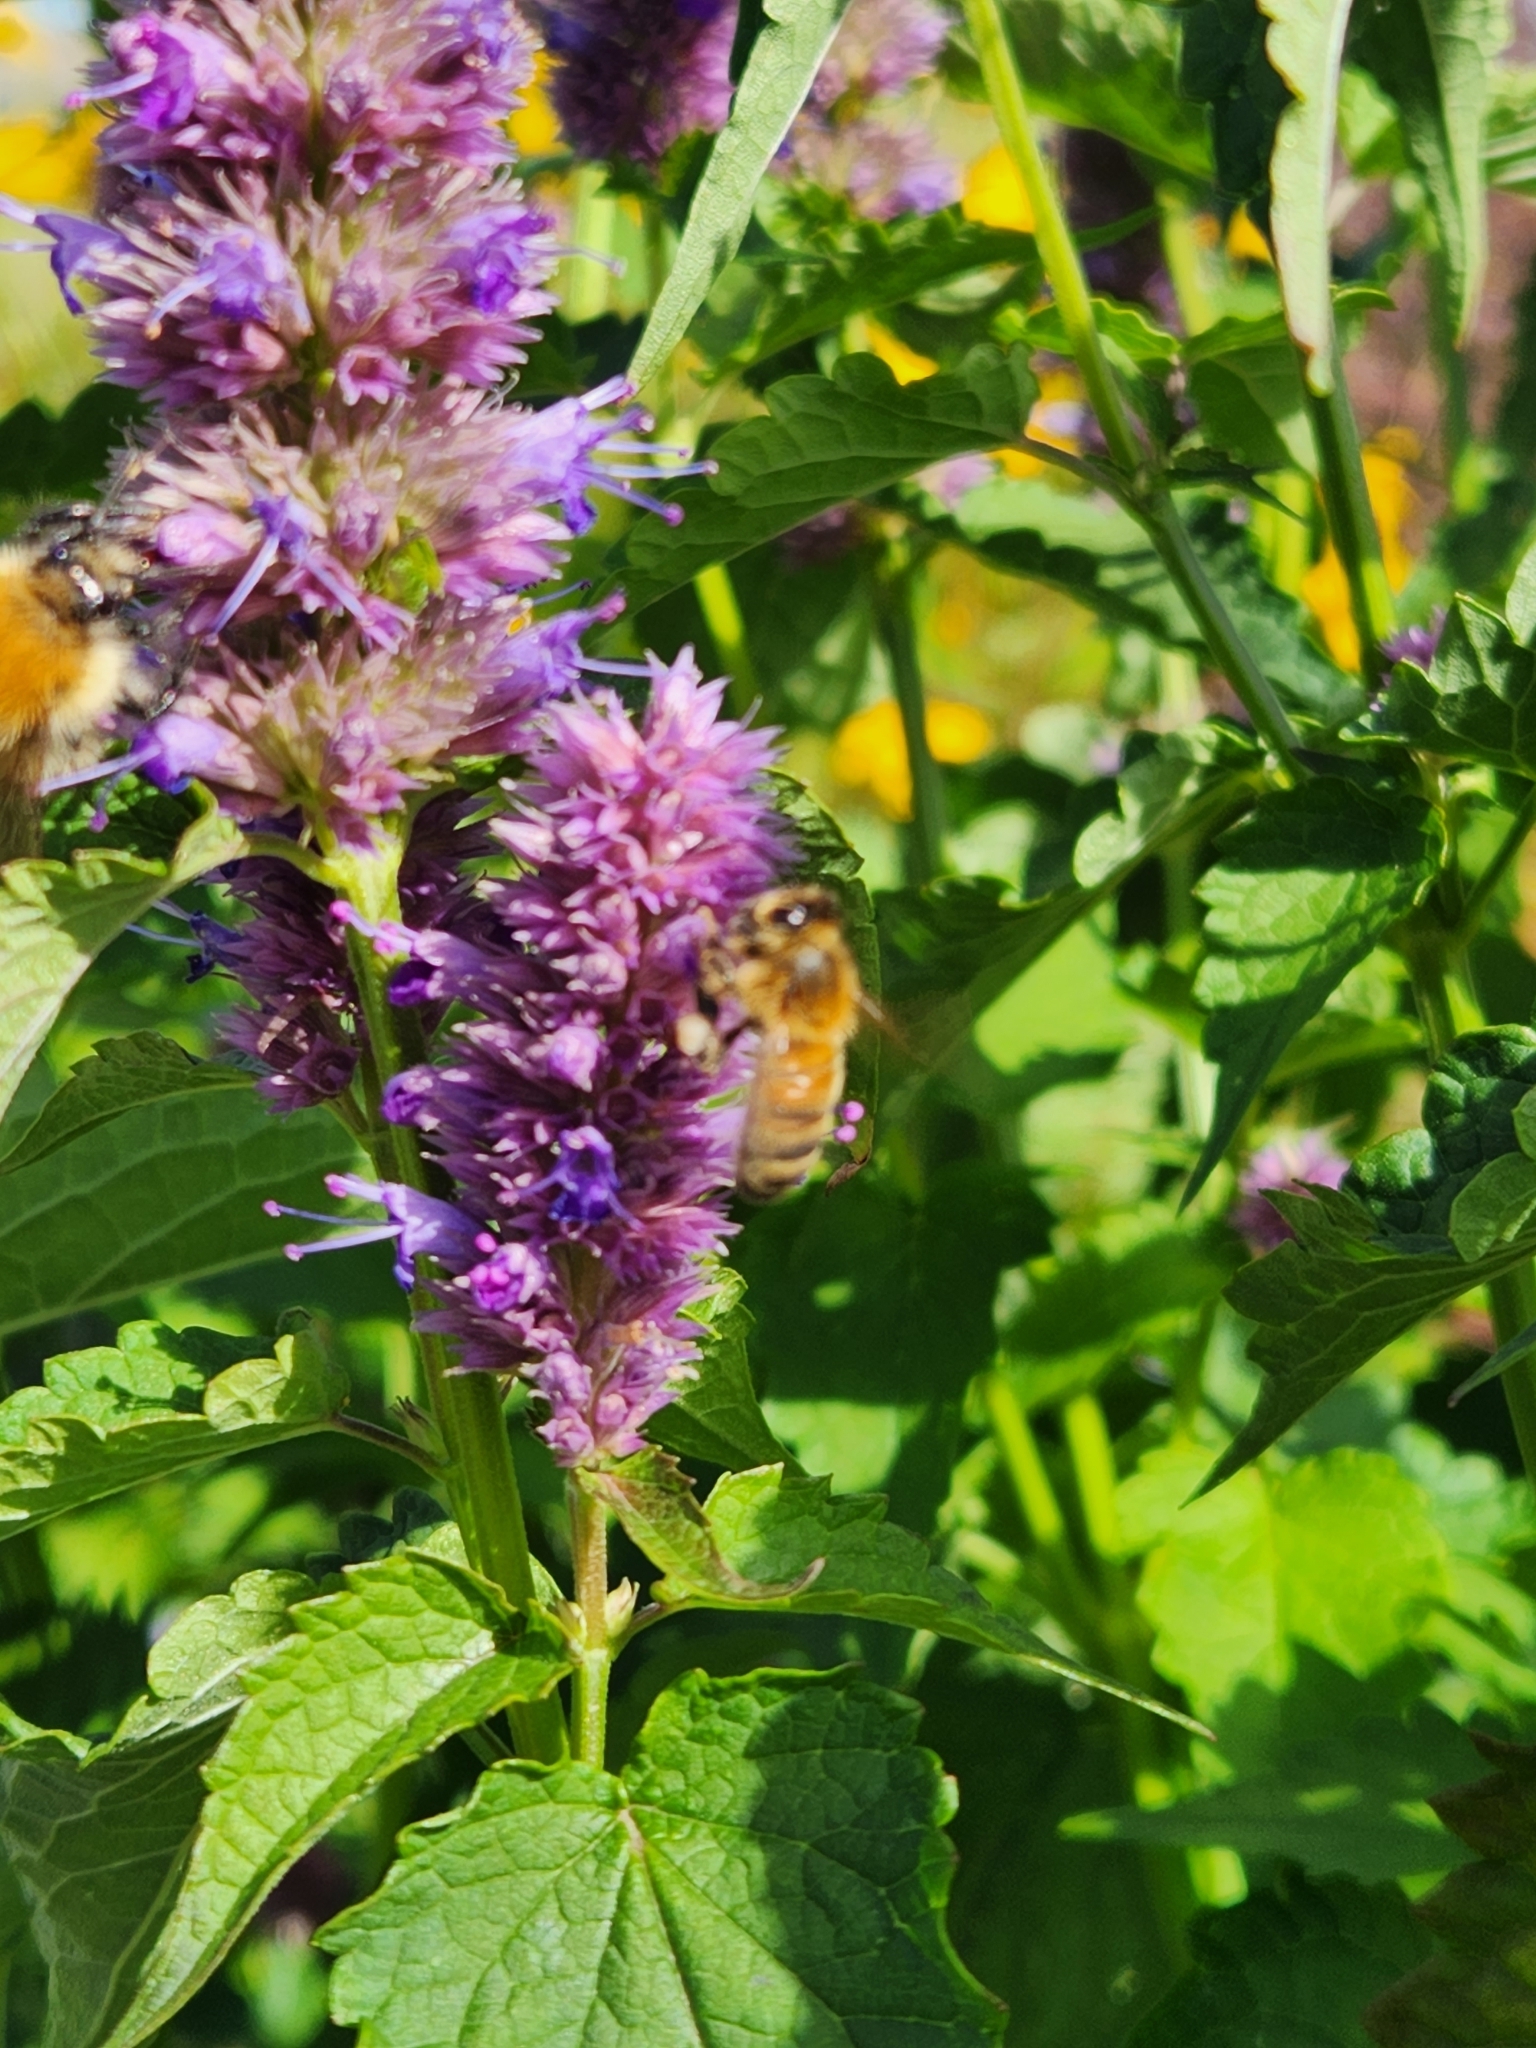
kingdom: Animalia
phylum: Arthropoda
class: Insecta
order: Hymenoptera
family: Apidae
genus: Apis
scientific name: Apis mellifera
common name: Honey bee
